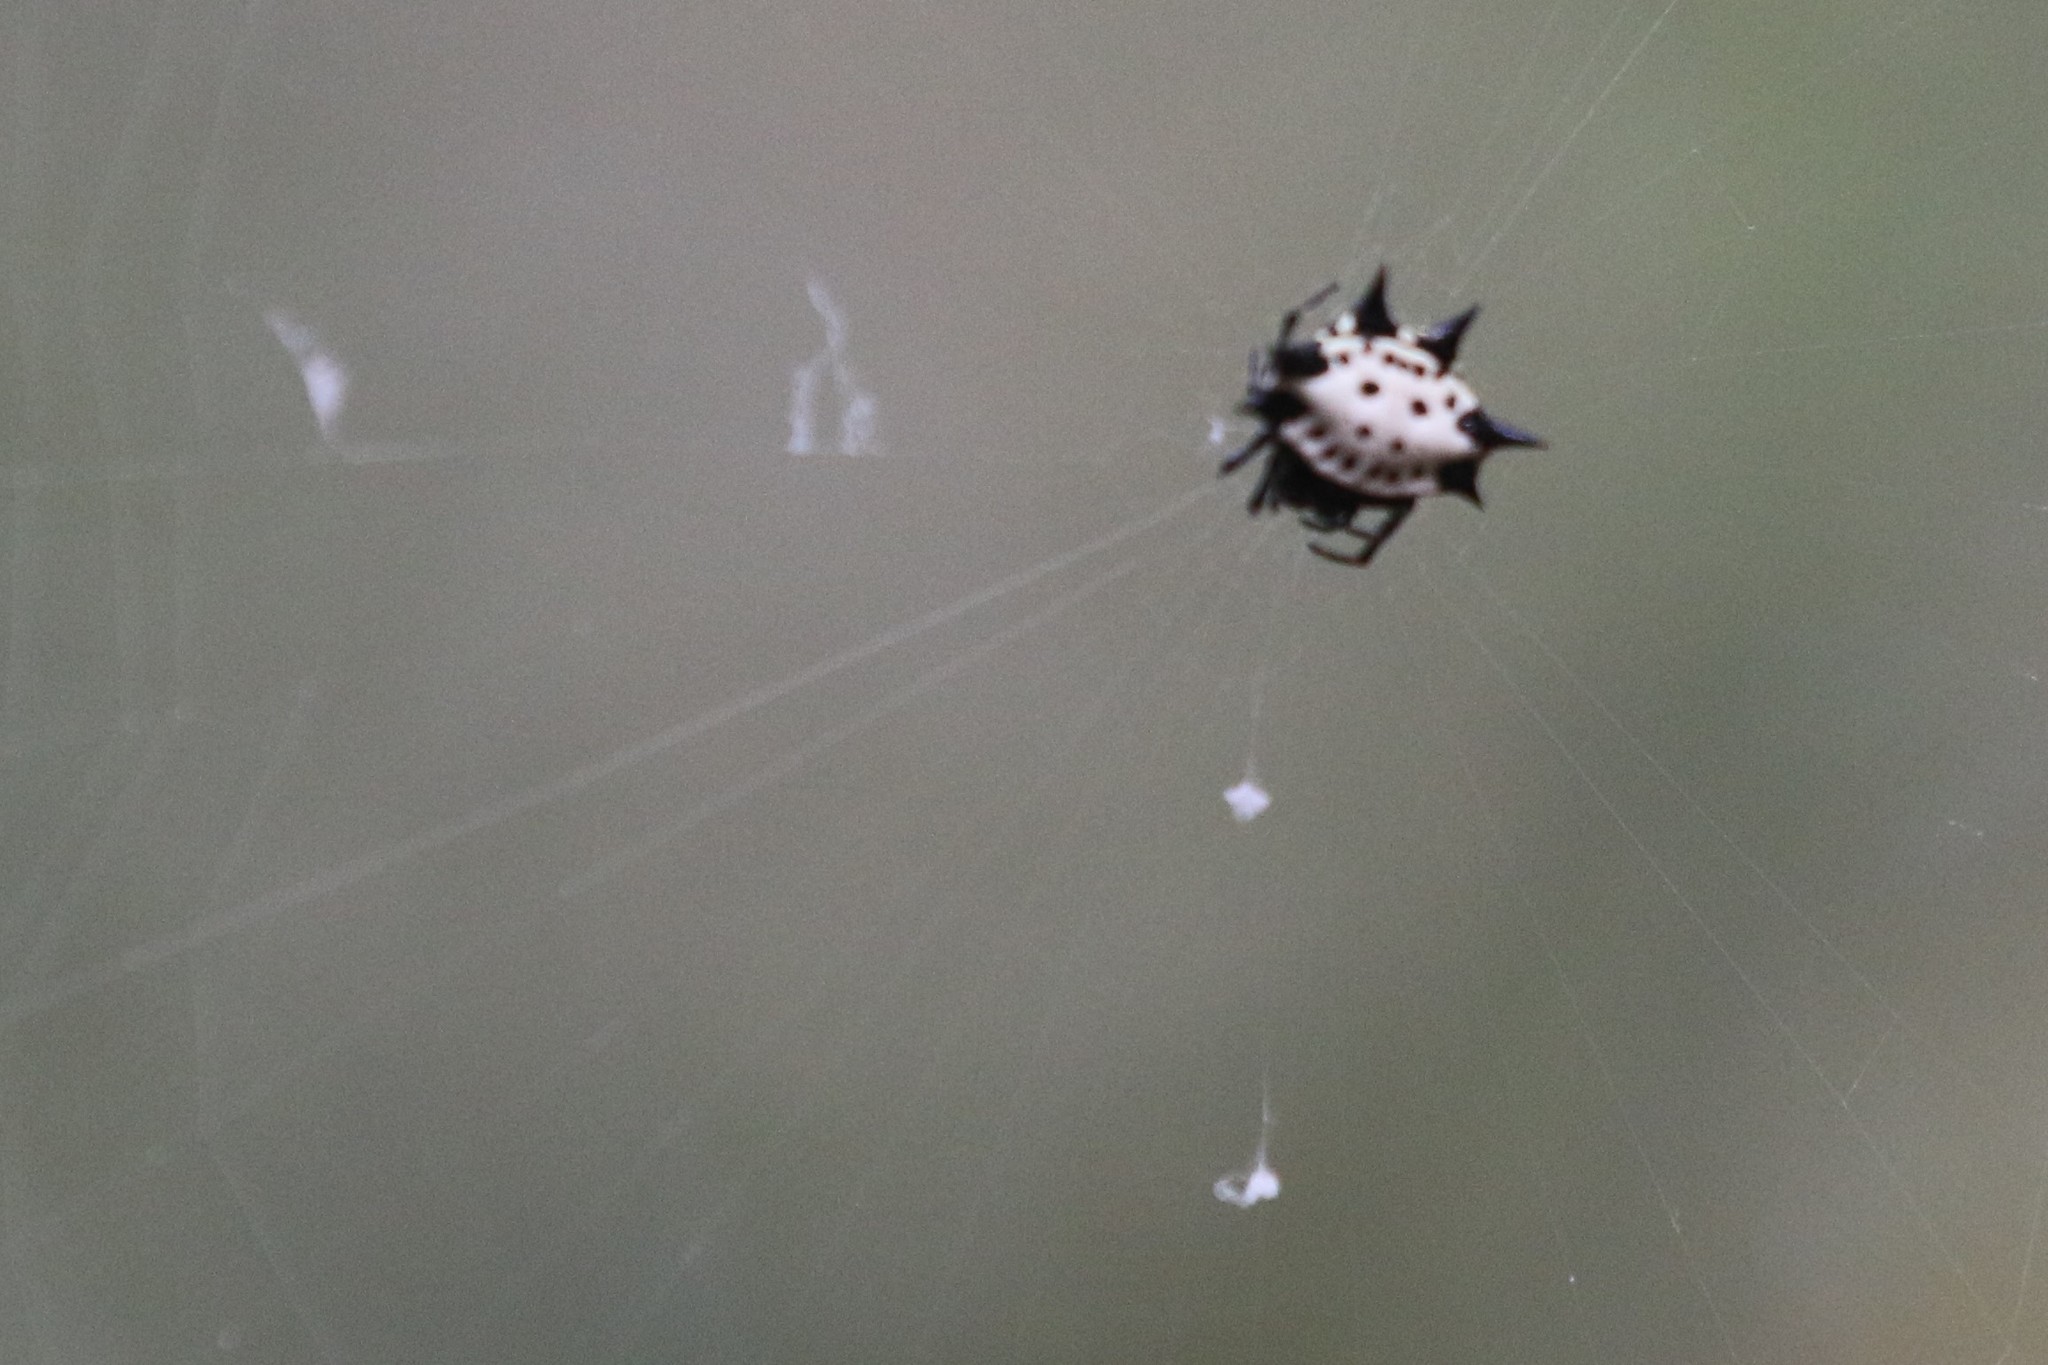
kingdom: Animalia
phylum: Arthropoda
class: Arachnida
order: Araneae
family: Araneidae
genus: Gasteracantha
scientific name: Gasteracantha cancriformis
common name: Orb weavers
